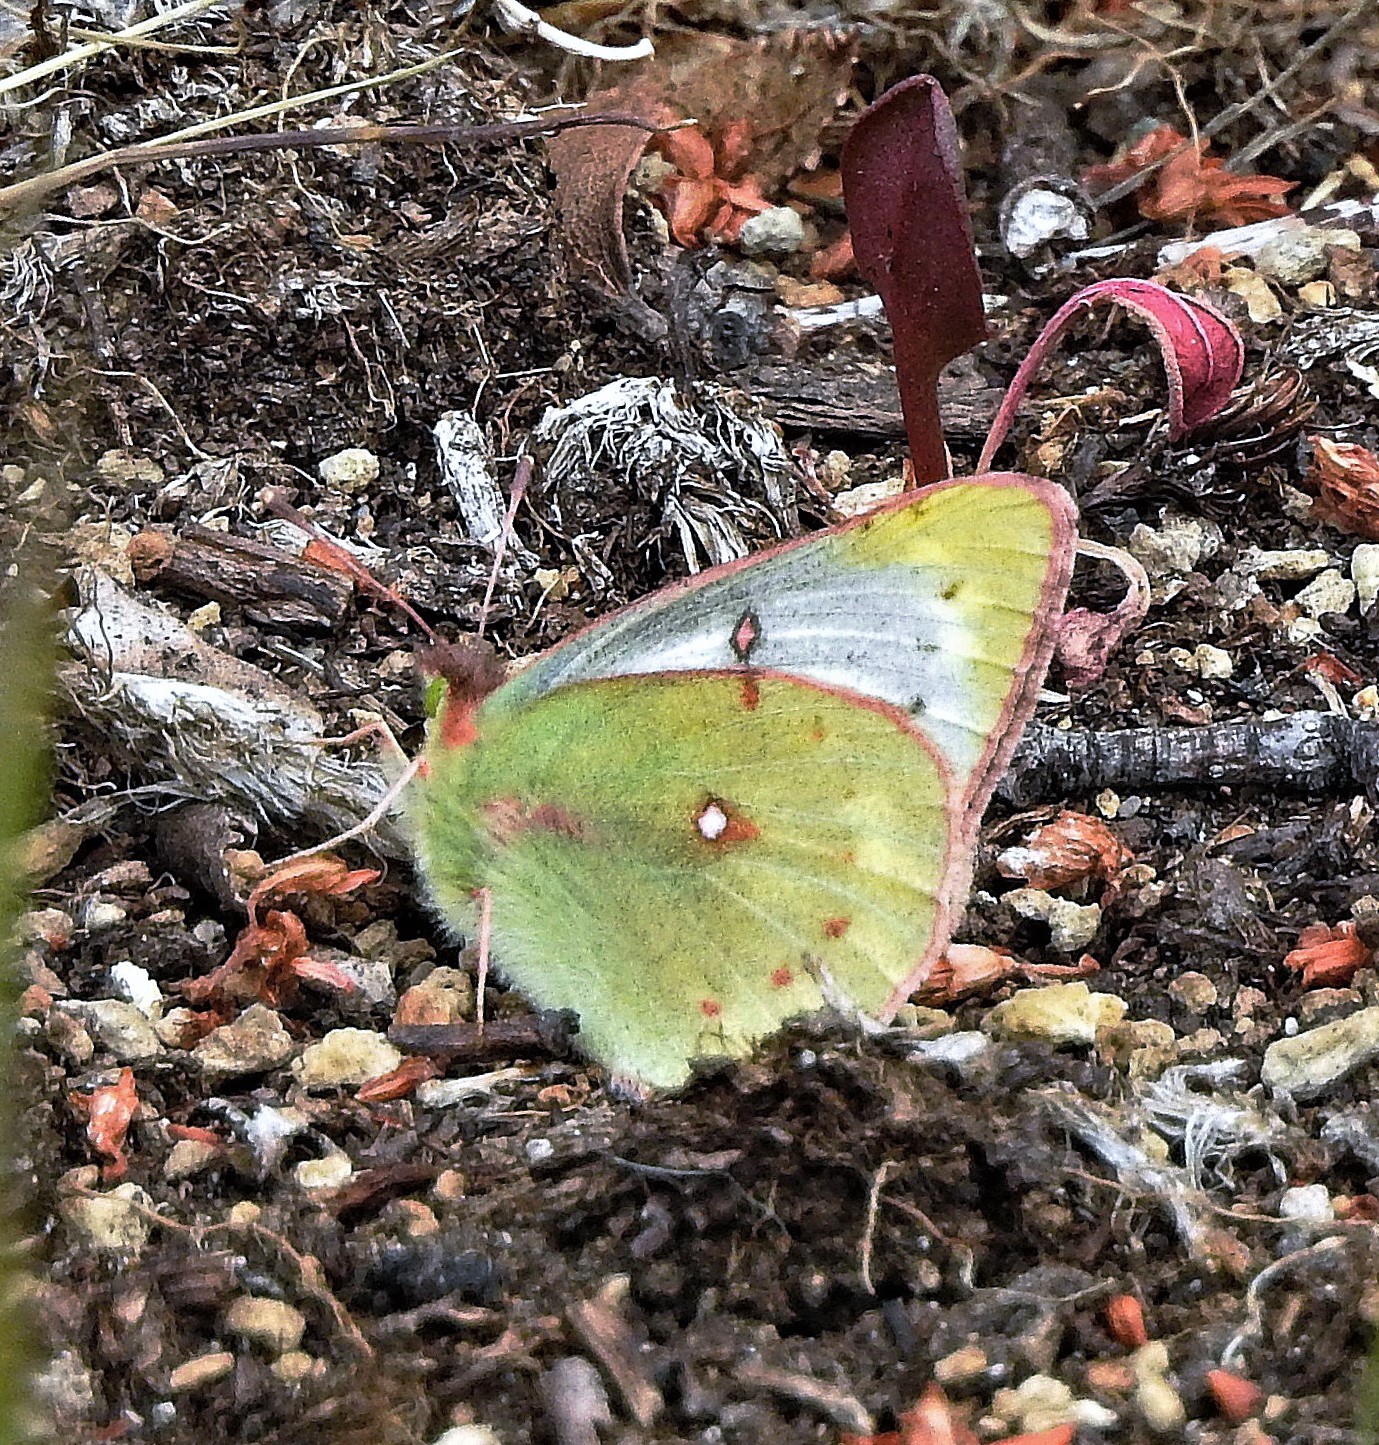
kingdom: Animalia
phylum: Arthropoda
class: Insecta
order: Lepidoptera
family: Pieridae
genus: Colias
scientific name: Colias vauthierii
